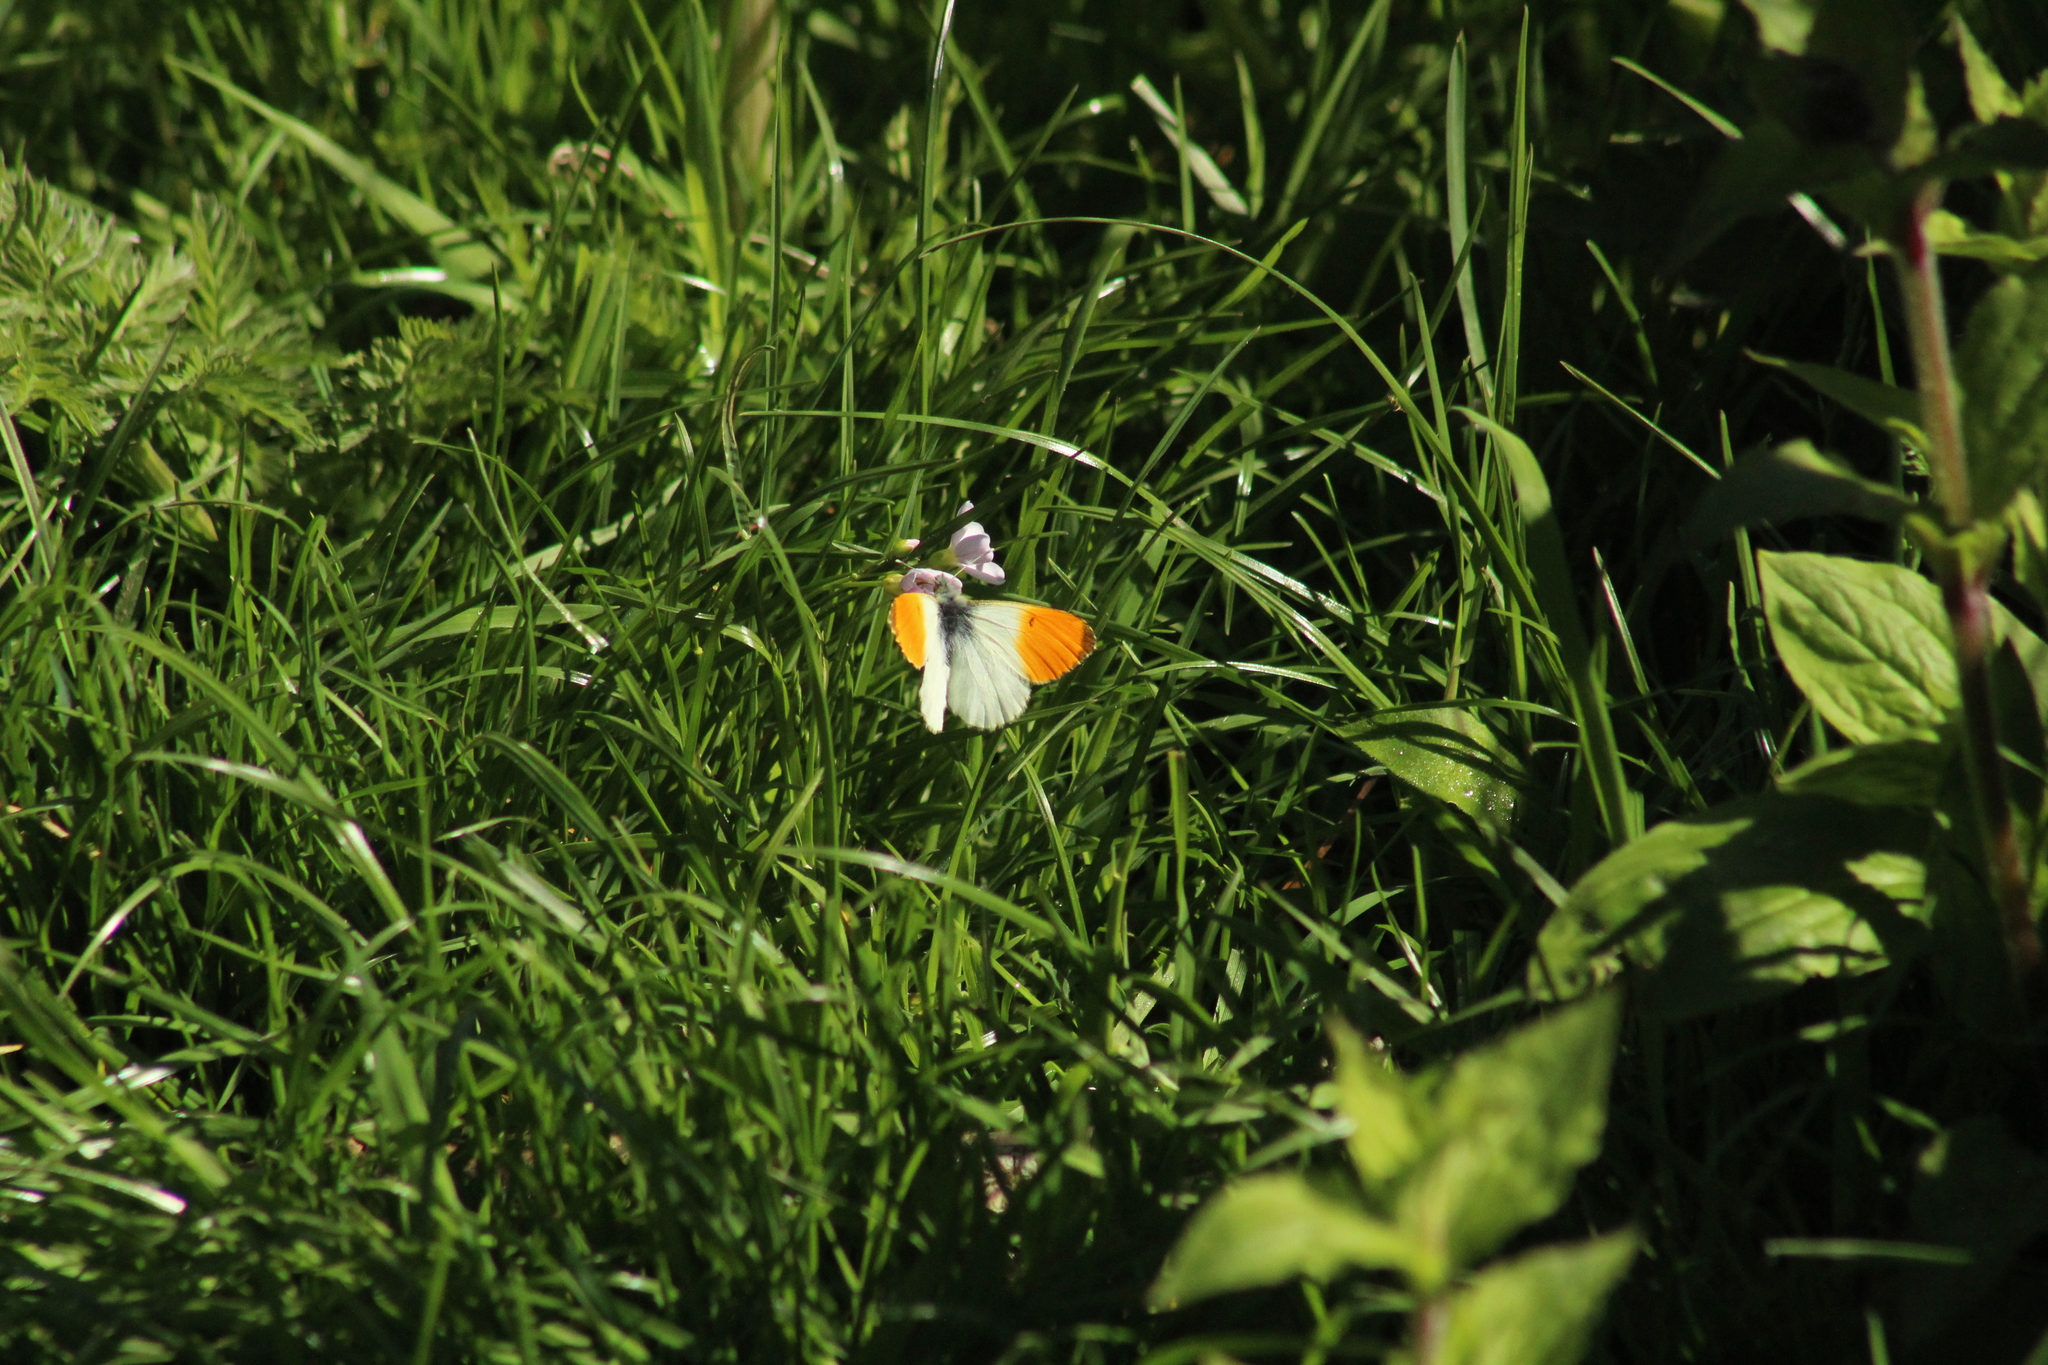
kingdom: Animalia
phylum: Arthropoda
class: Insecta
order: Lepidoptera
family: Pieridae
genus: Anthocharis
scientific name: Anthocharis cardamines
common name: Orange-tip
